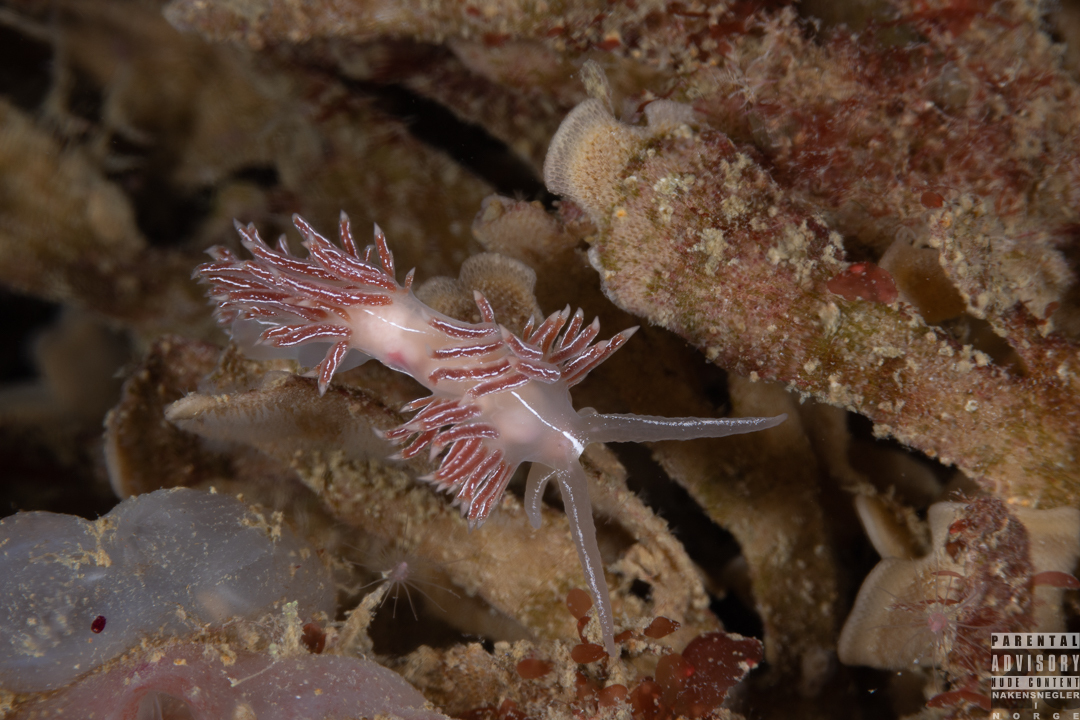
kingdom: Animalia
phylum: Mollusca
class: Gastropoda
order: Nudibranchia
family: Coryphellidae
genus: Coryphella
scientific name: Coryphella chriskaugei
